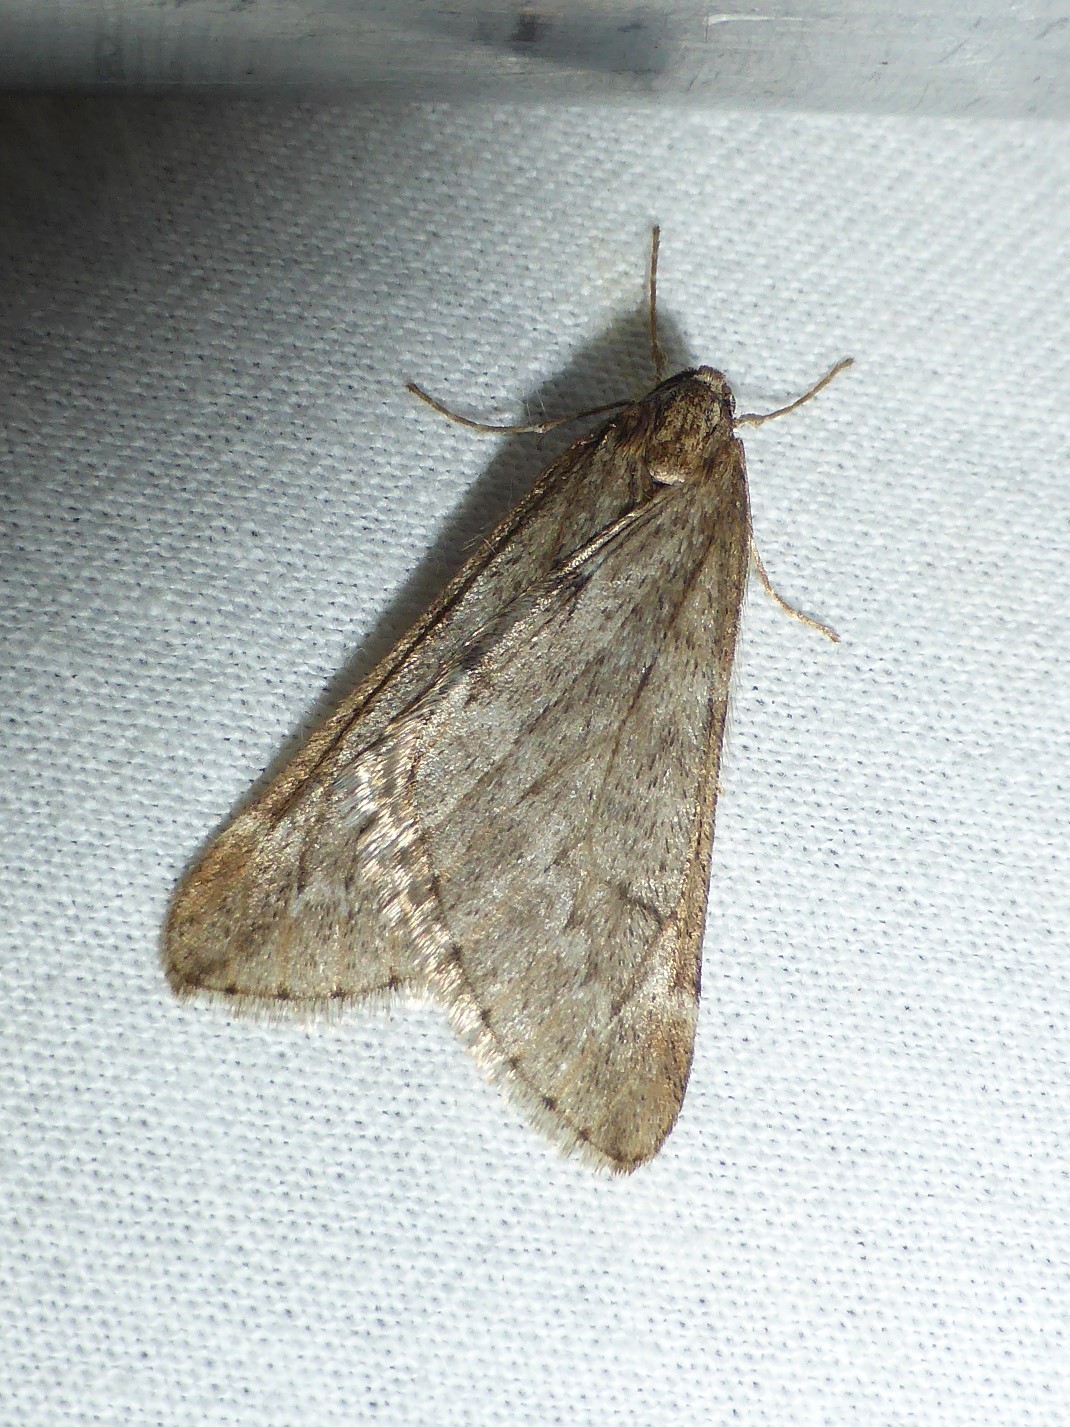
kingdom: Animalia
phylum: Arthropoda
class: Insecta
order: Lepidoptera
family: Geometridae
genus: Alsophila
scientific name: Alsophila aescularia
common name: March moth
